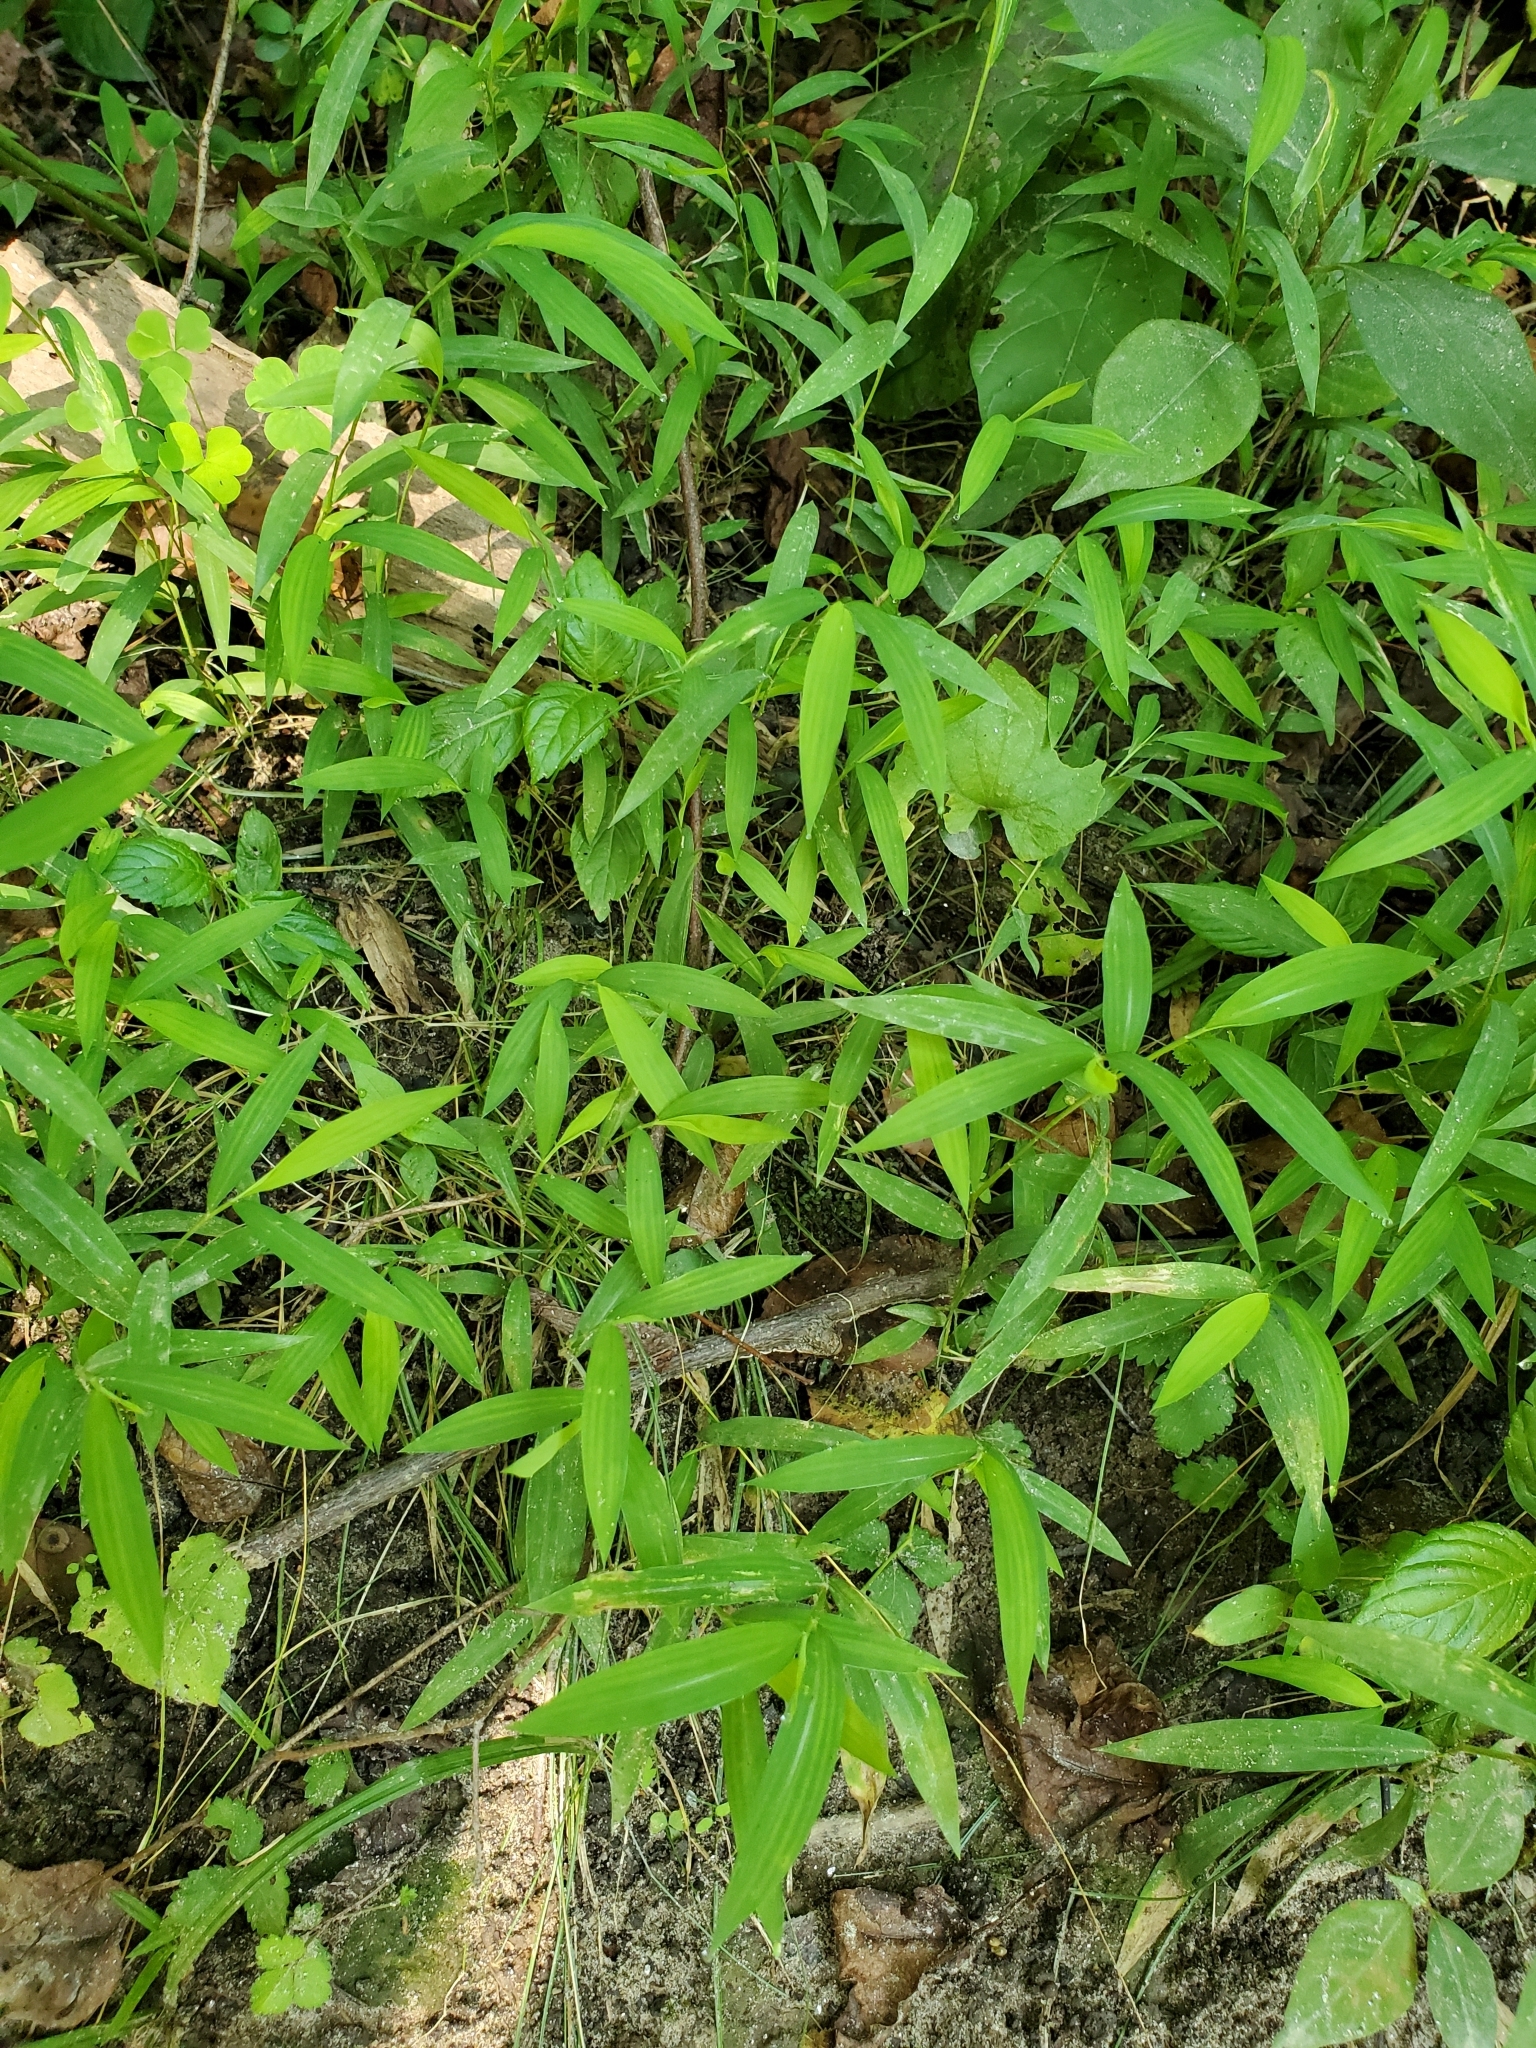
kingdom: Plantae
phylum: Tracheophyta
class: Liliopsida
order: Poales
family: Poaceae
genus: Microstegium
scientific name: Microstegium vimineum
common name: Japanese stiltgrass
